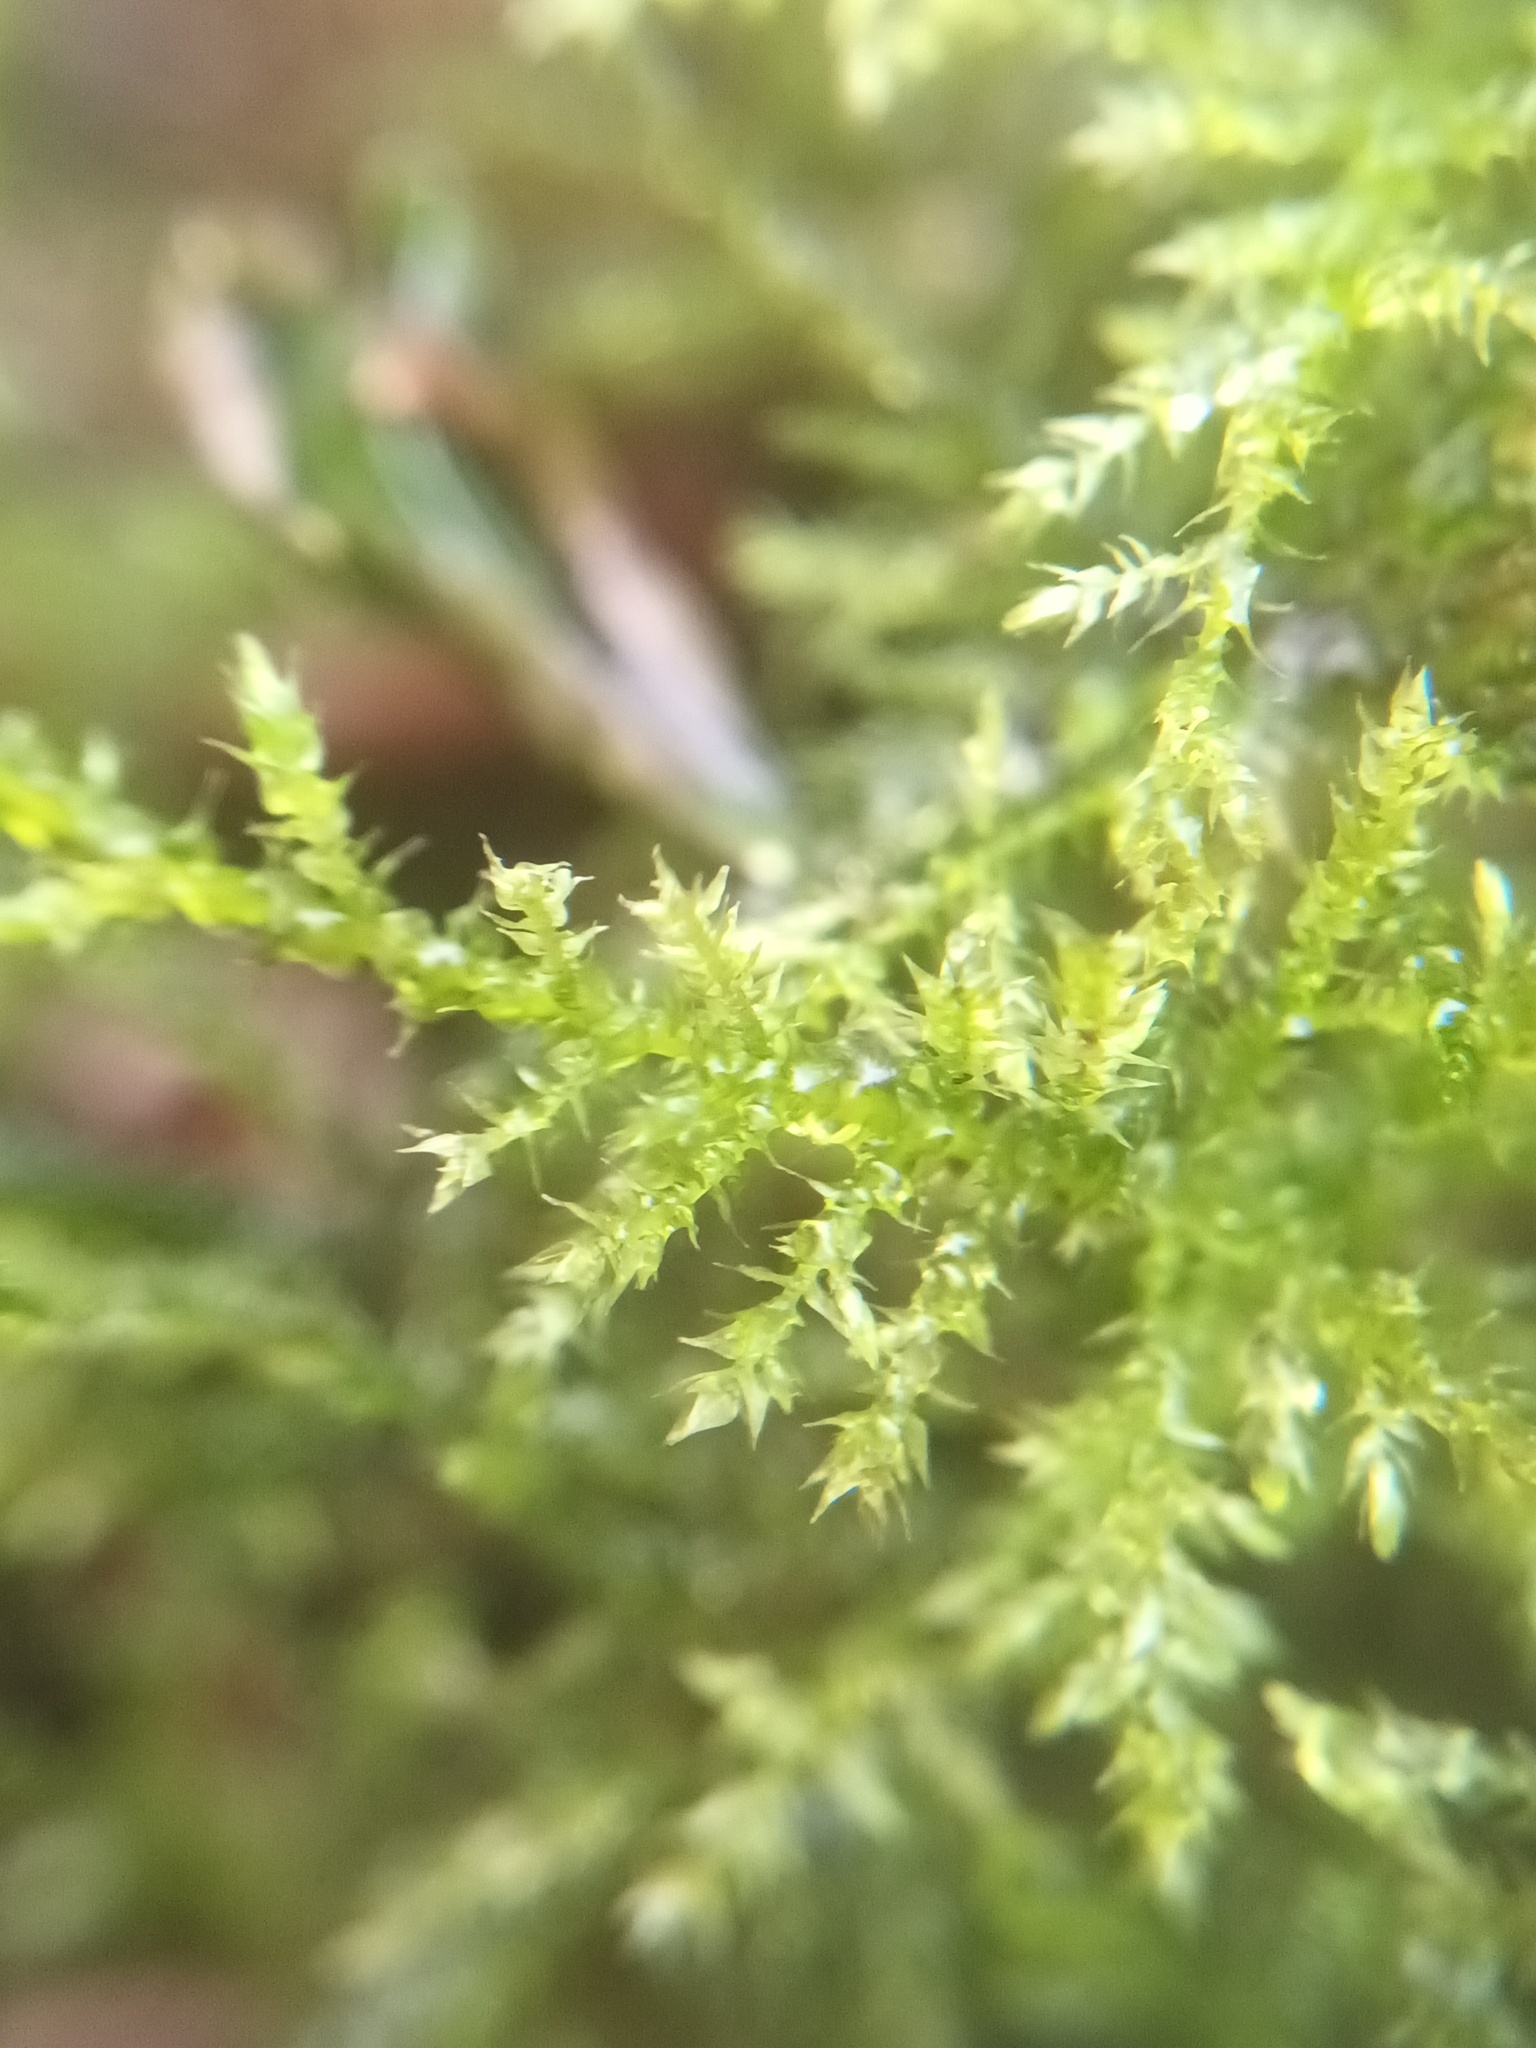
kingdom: Plantae
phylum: Bryophyta
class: Bryopsida
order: Hypnales
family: Brachytheciaceae
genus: Kindbergia
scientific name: Kindbergia praelonga
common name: Slender beaked moss
